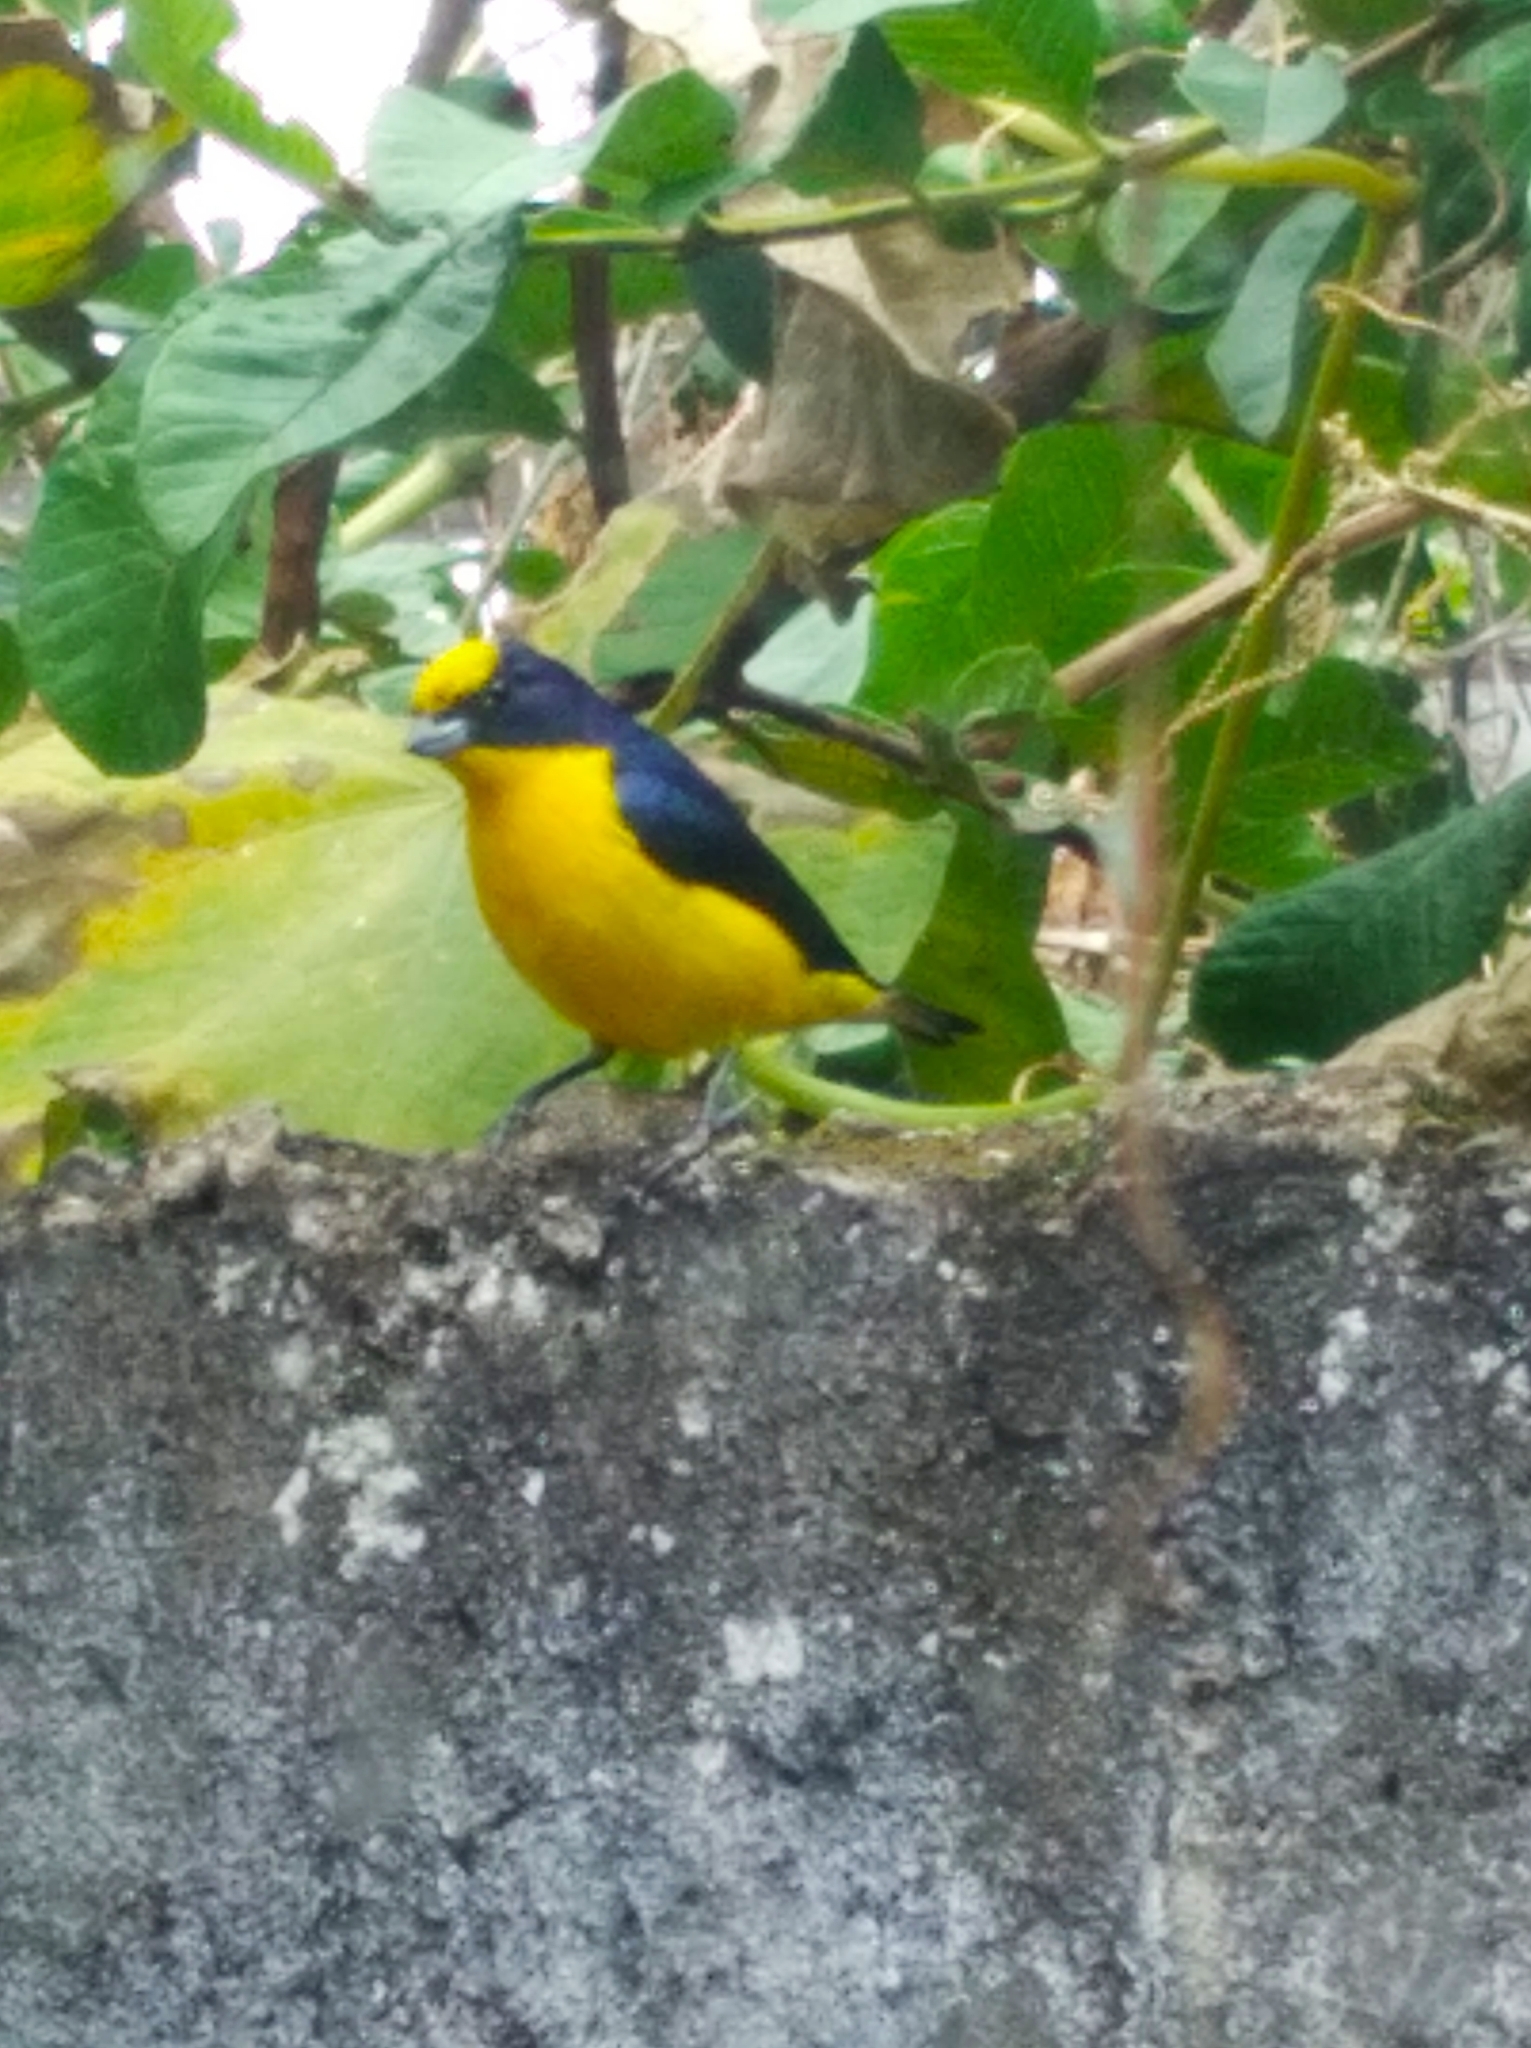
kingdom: Animalia
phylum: Chordata
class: Aves
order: Passeriformes
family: Fringillidae
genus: Euphonia
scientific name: Euphonia laniirostris
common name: Thick-billed euphonia
